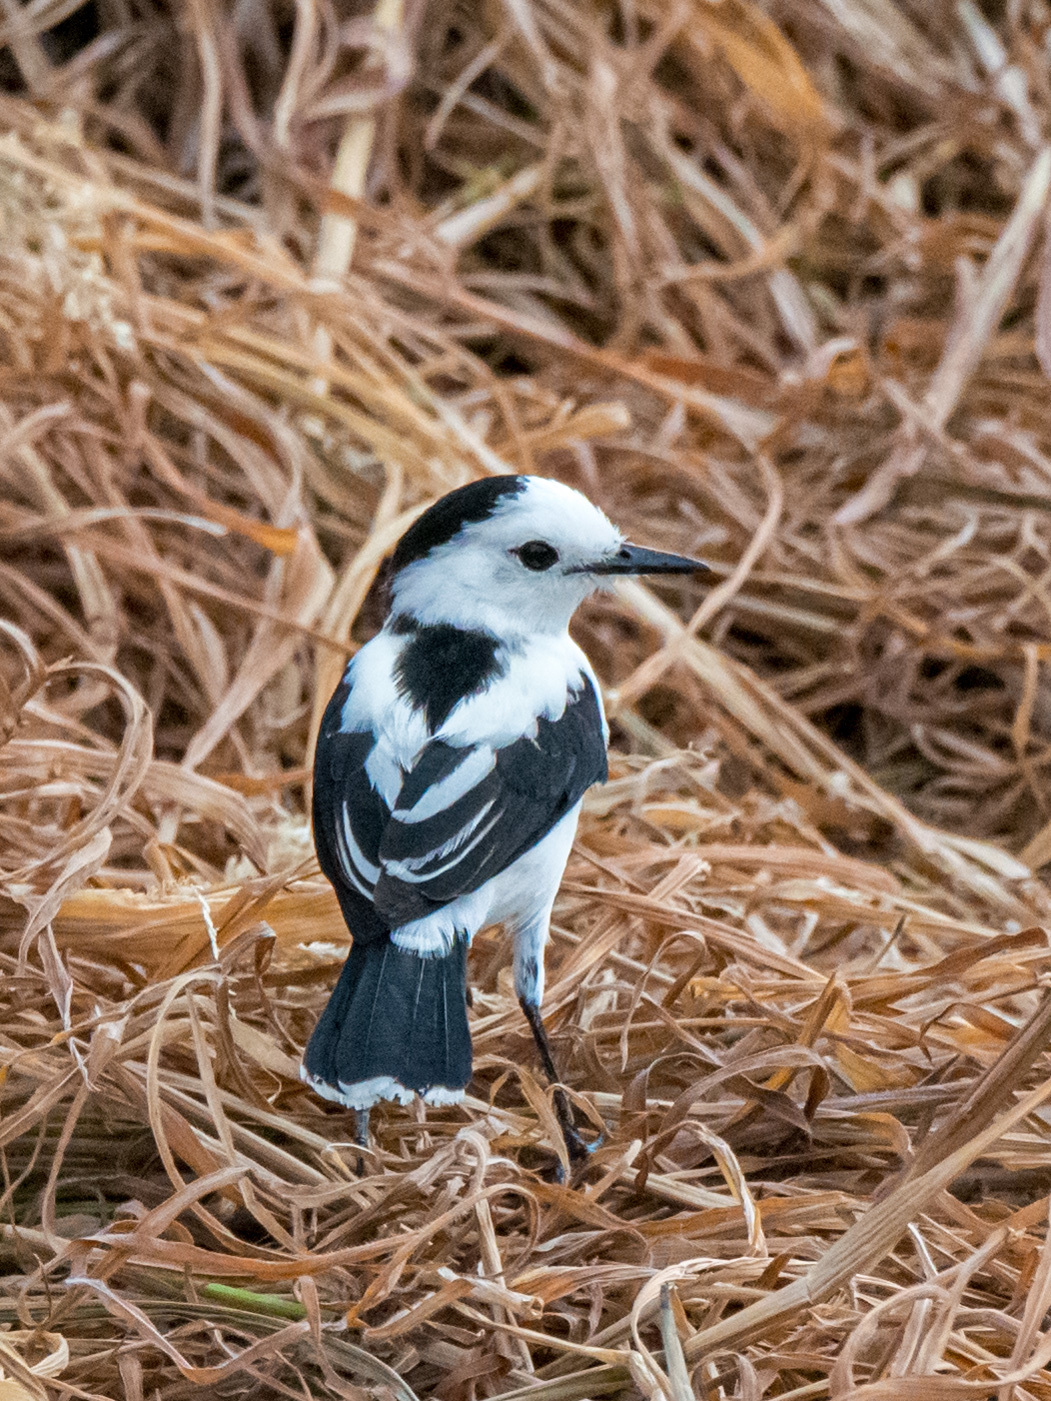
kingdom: Animalia
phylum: Chordata
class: Aves
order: Passeriformes
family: Tyrannidae
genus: Fluvicola
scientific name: Fluvicola pica
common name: Pied water-tyrant
